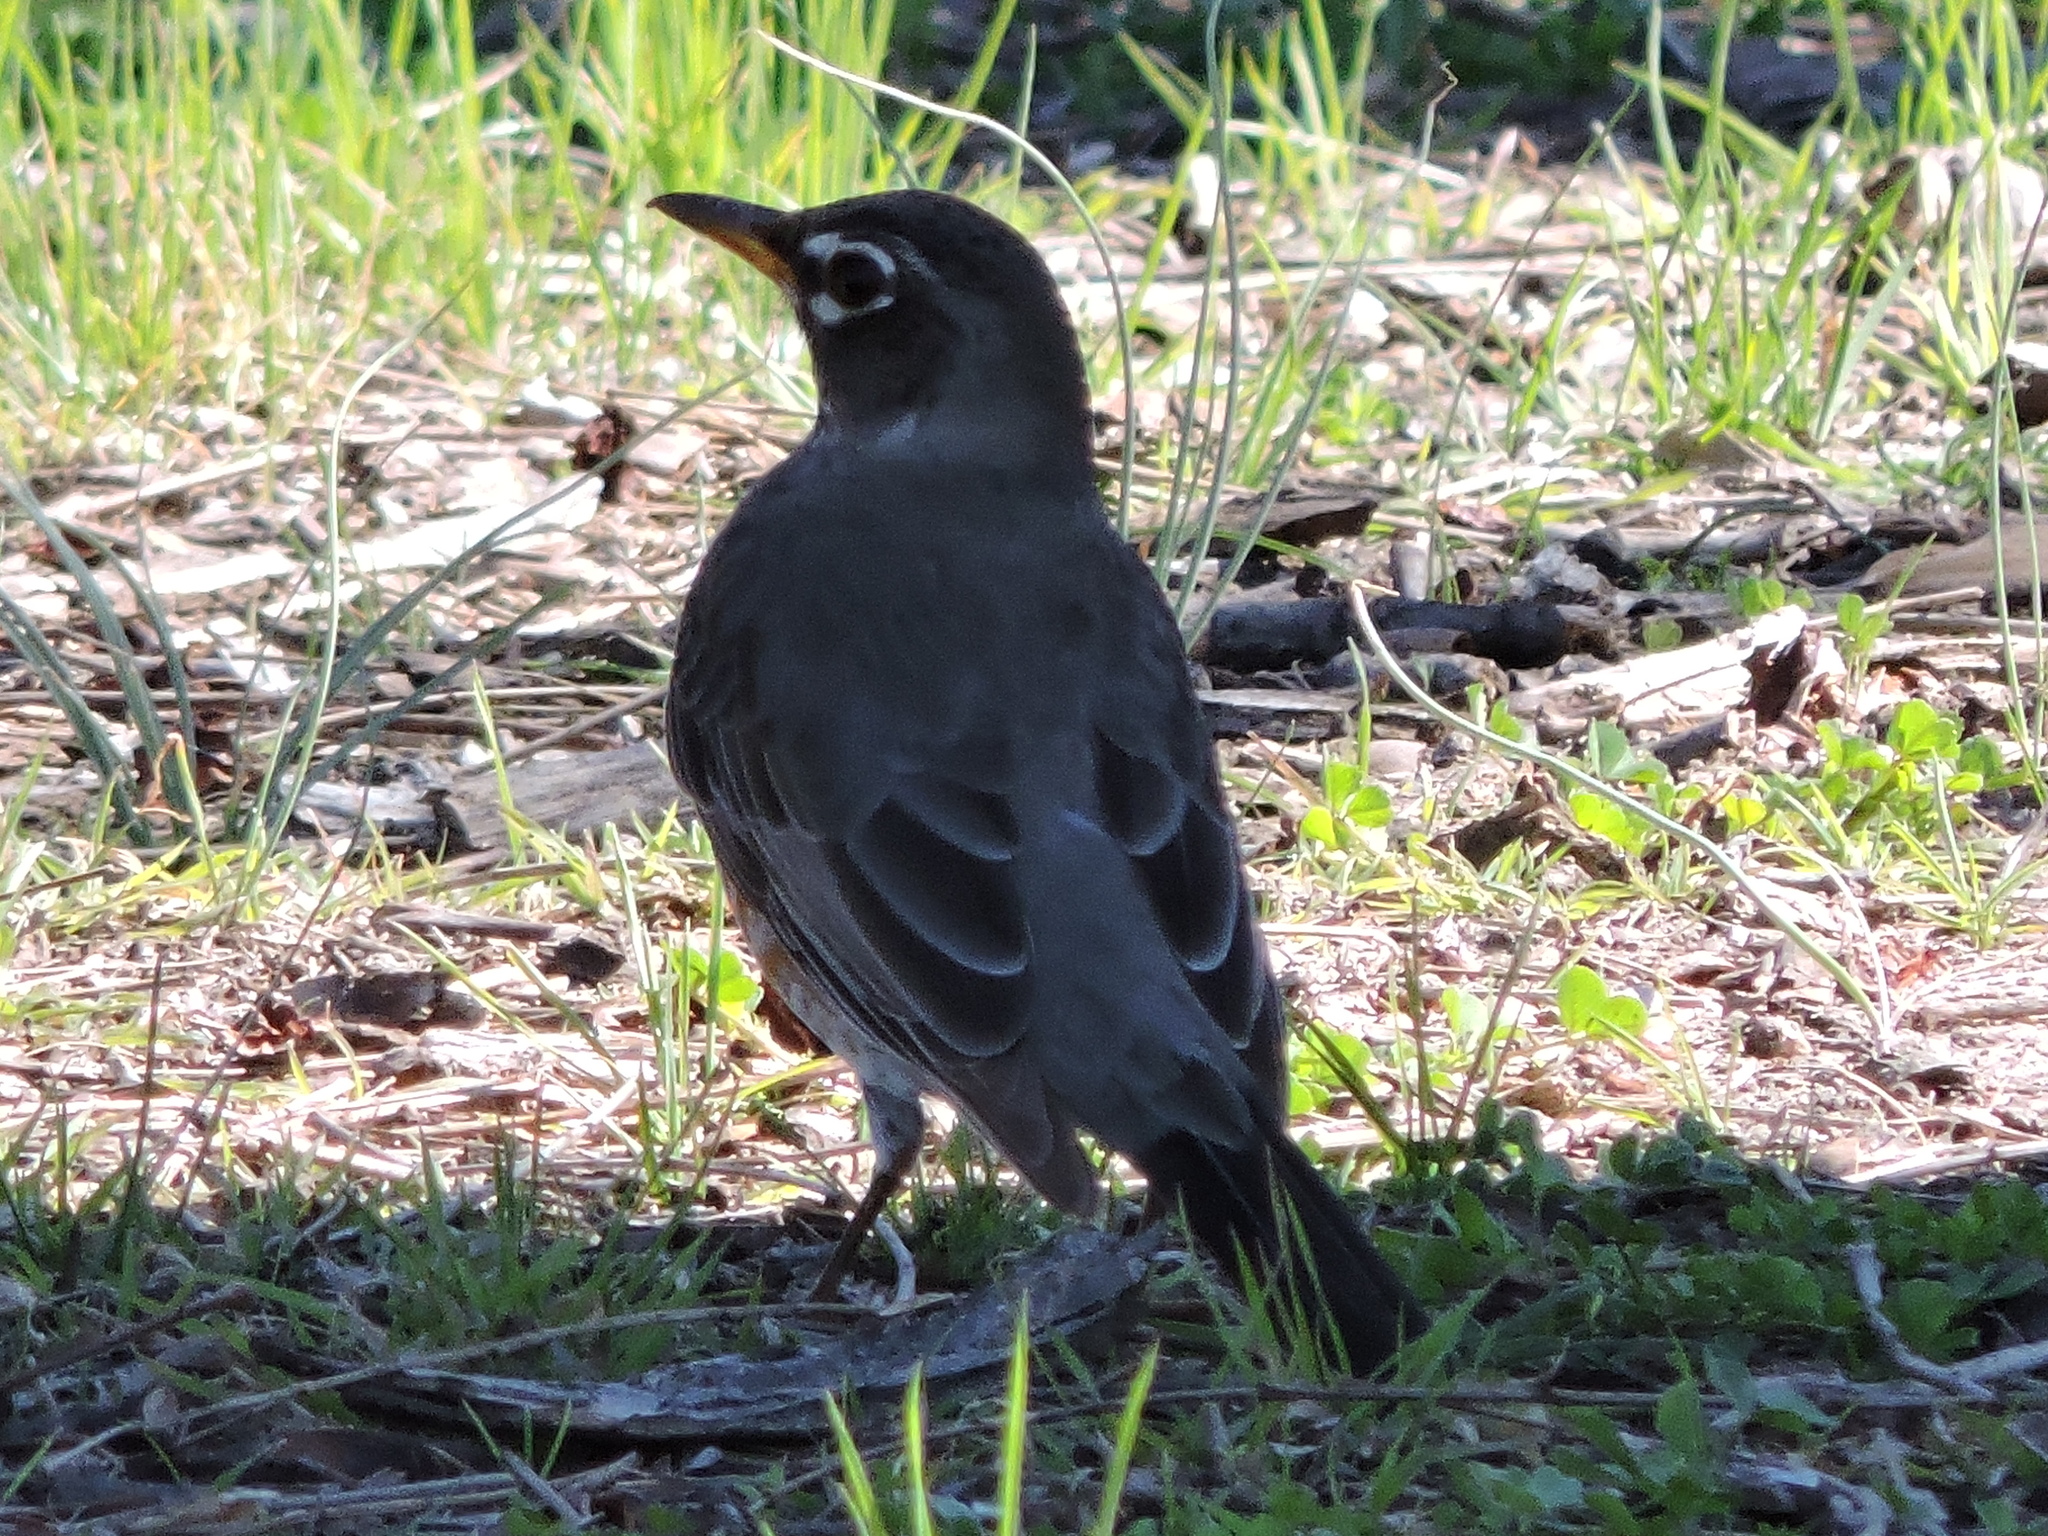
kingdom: Animalia
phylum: Chordata
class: Aves
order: Passeriformes
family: Turdidae
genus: Turdus
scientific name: Turdus migratorius
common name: American robin
